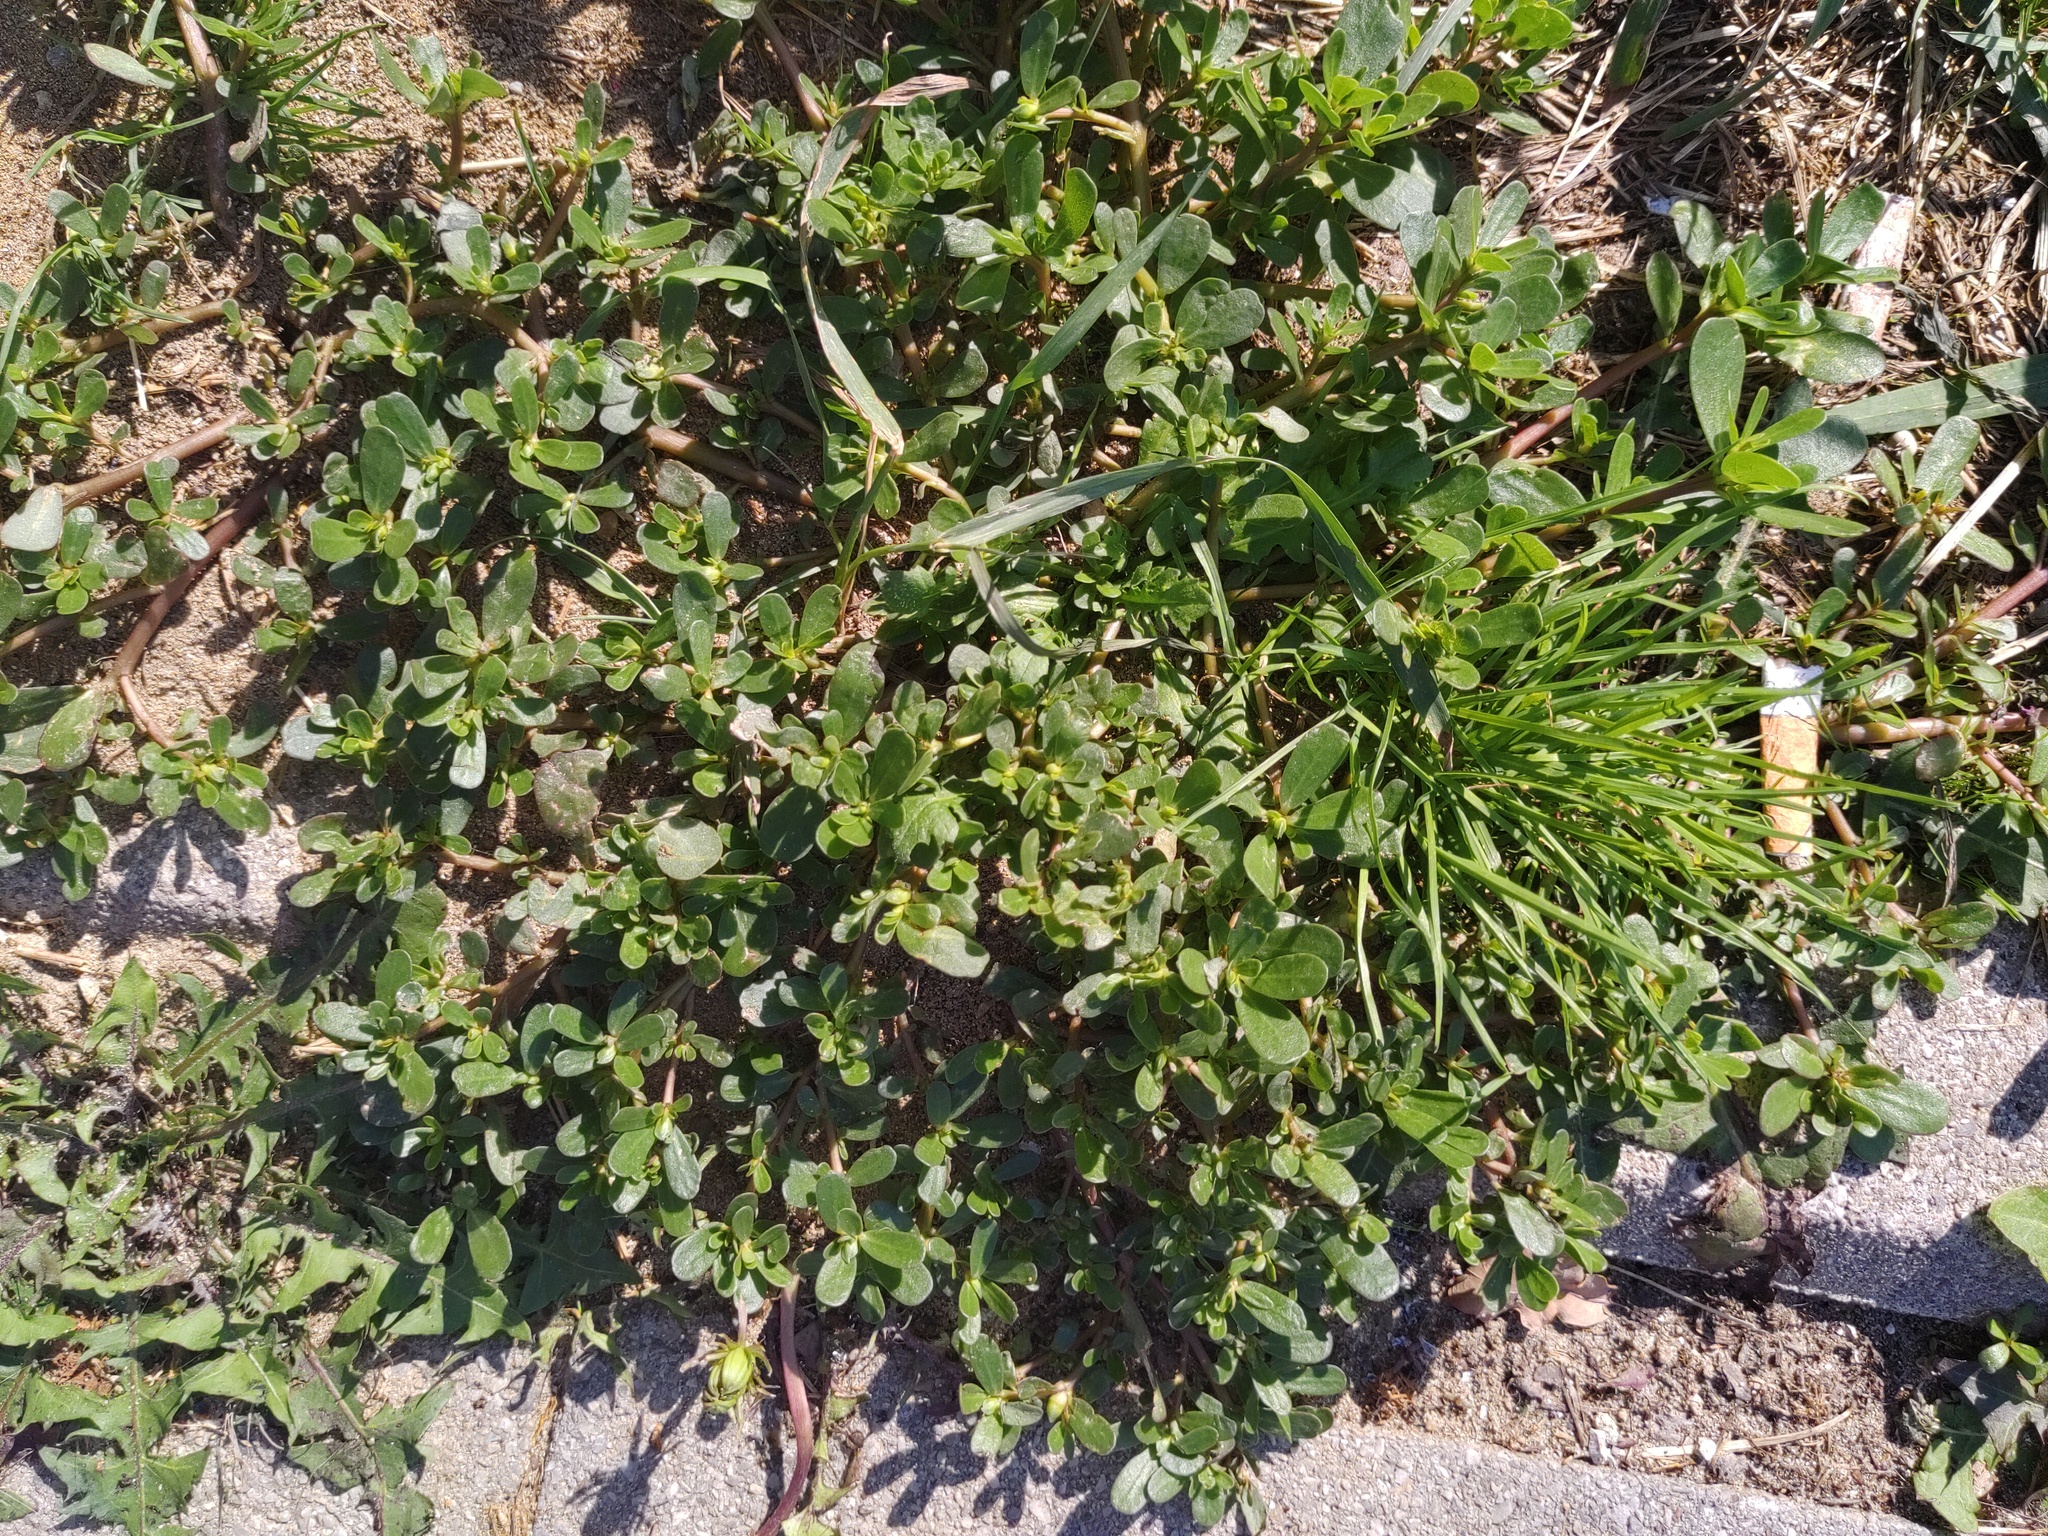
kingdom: Plantae
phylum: Tracheophyta
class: Magnoliopsida
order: Caryophyllales
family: Portulacaceae
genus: Portulaca
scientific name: Portulaca oleracea
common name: Common purslane
